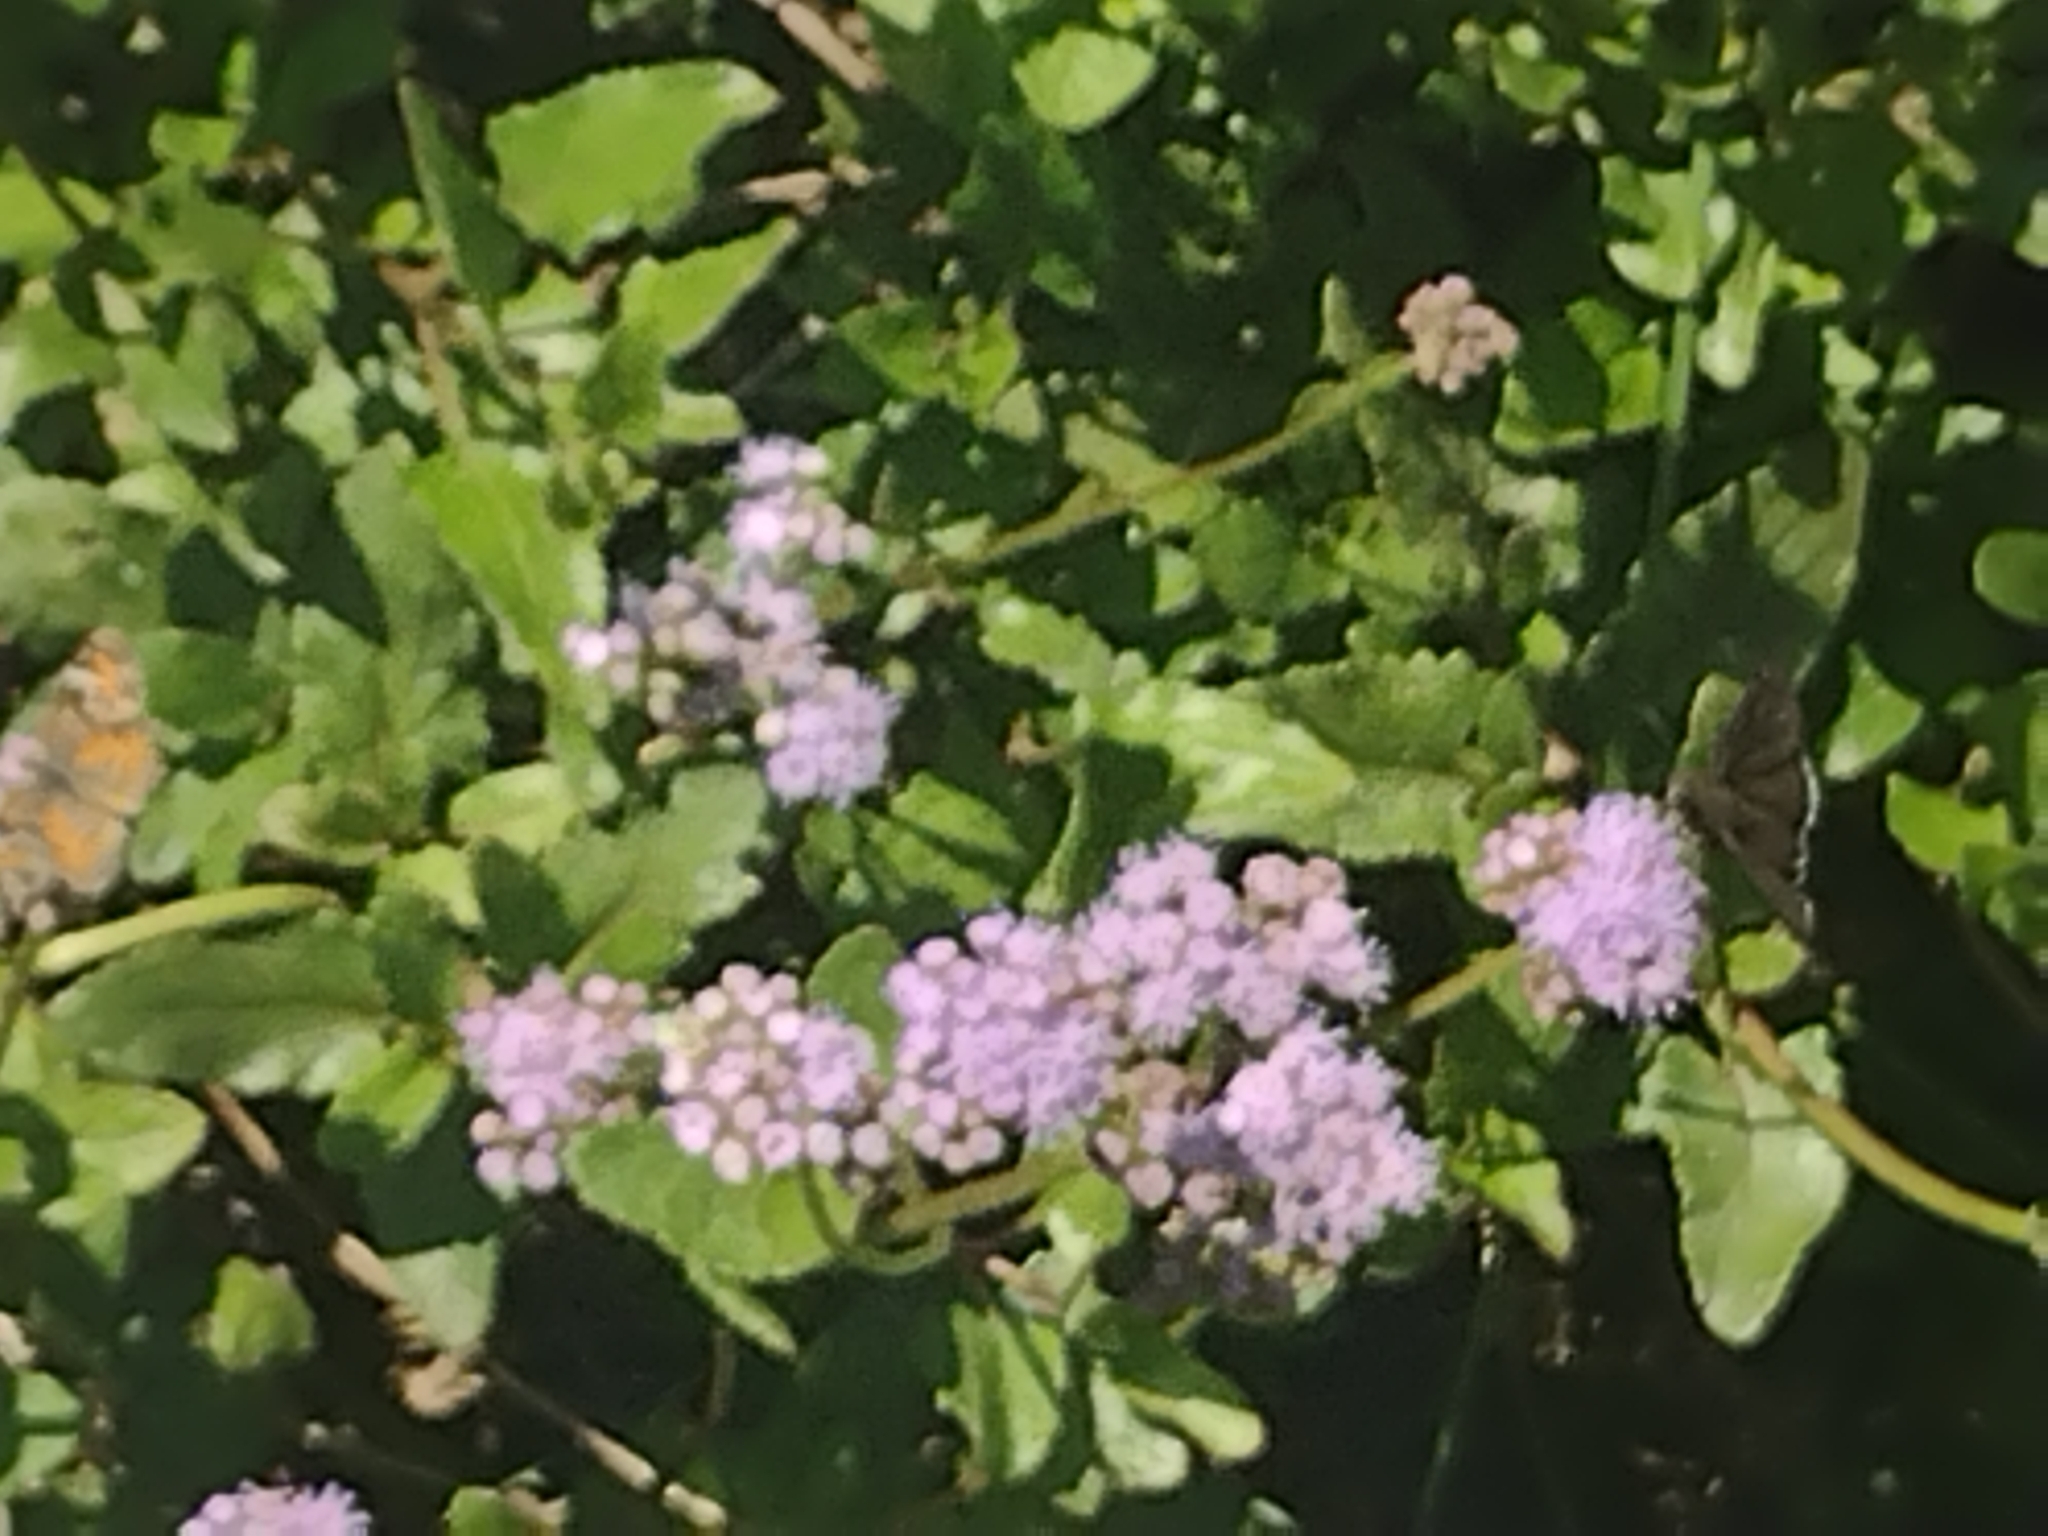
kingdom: Plantae
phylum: Tracheophyta
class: Magnoliopsida
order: Asterales
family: Asteraceae
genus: Conoclinium
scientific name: Conoclinium betonicifolium
